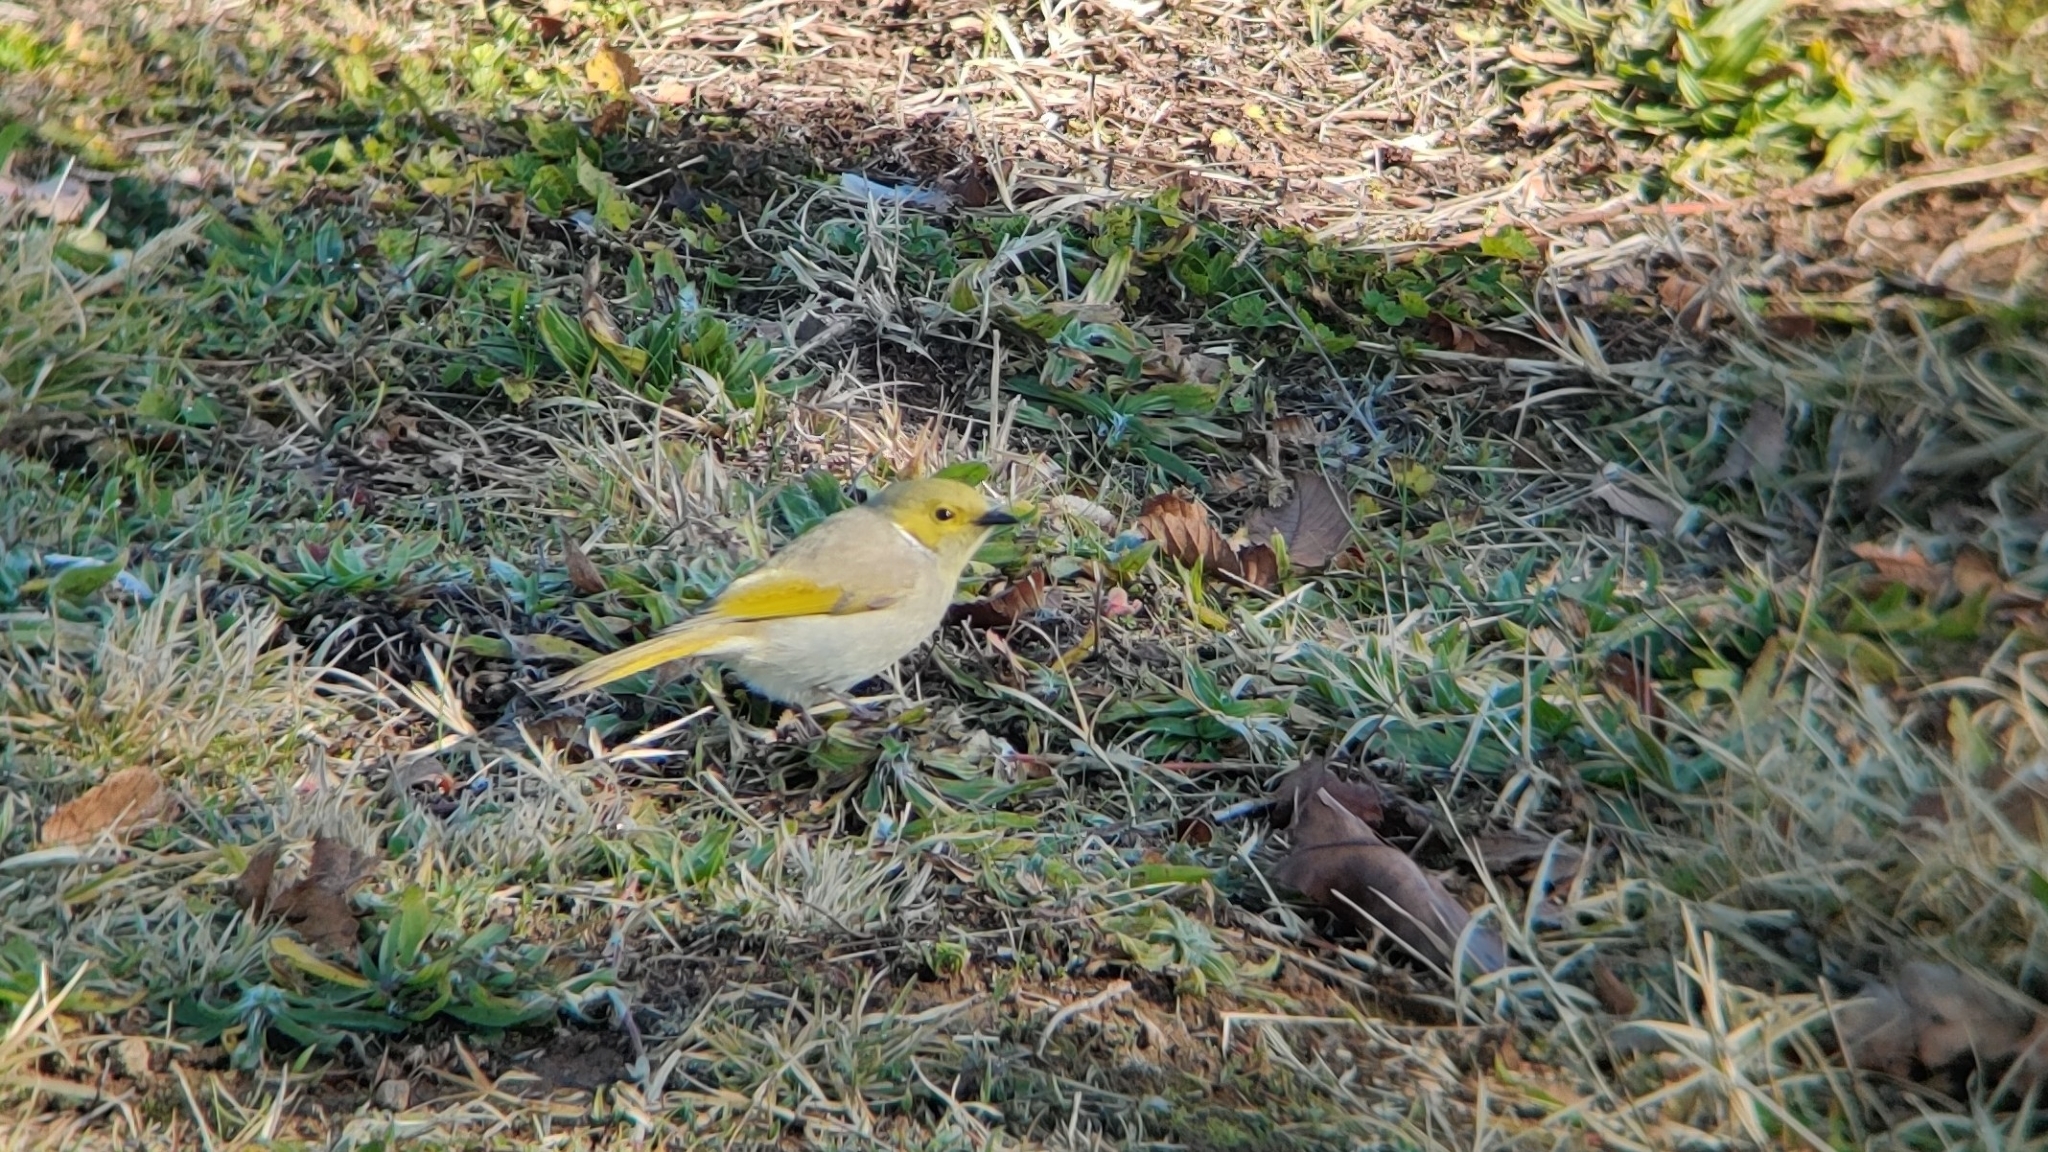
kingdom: Animalia
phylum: Chordata
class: Aves
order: Passeriformes
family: Meliphagidae
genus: Ptilotula
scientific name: Ptilotula penicillata
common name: White-plumed honeyeater
